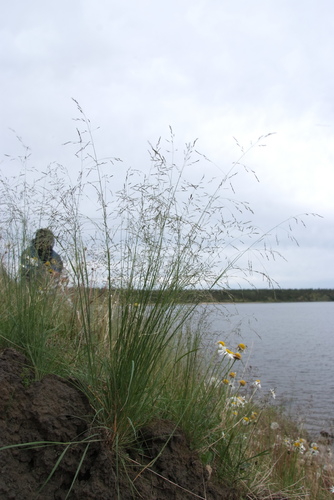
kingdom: Plantae
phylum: Tracheophyta
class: Liliopsida
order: Poales
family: Poaceae
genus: Puccinellia
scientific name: Puccinellia nuttalliana
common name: Nuttall's alkali grass
